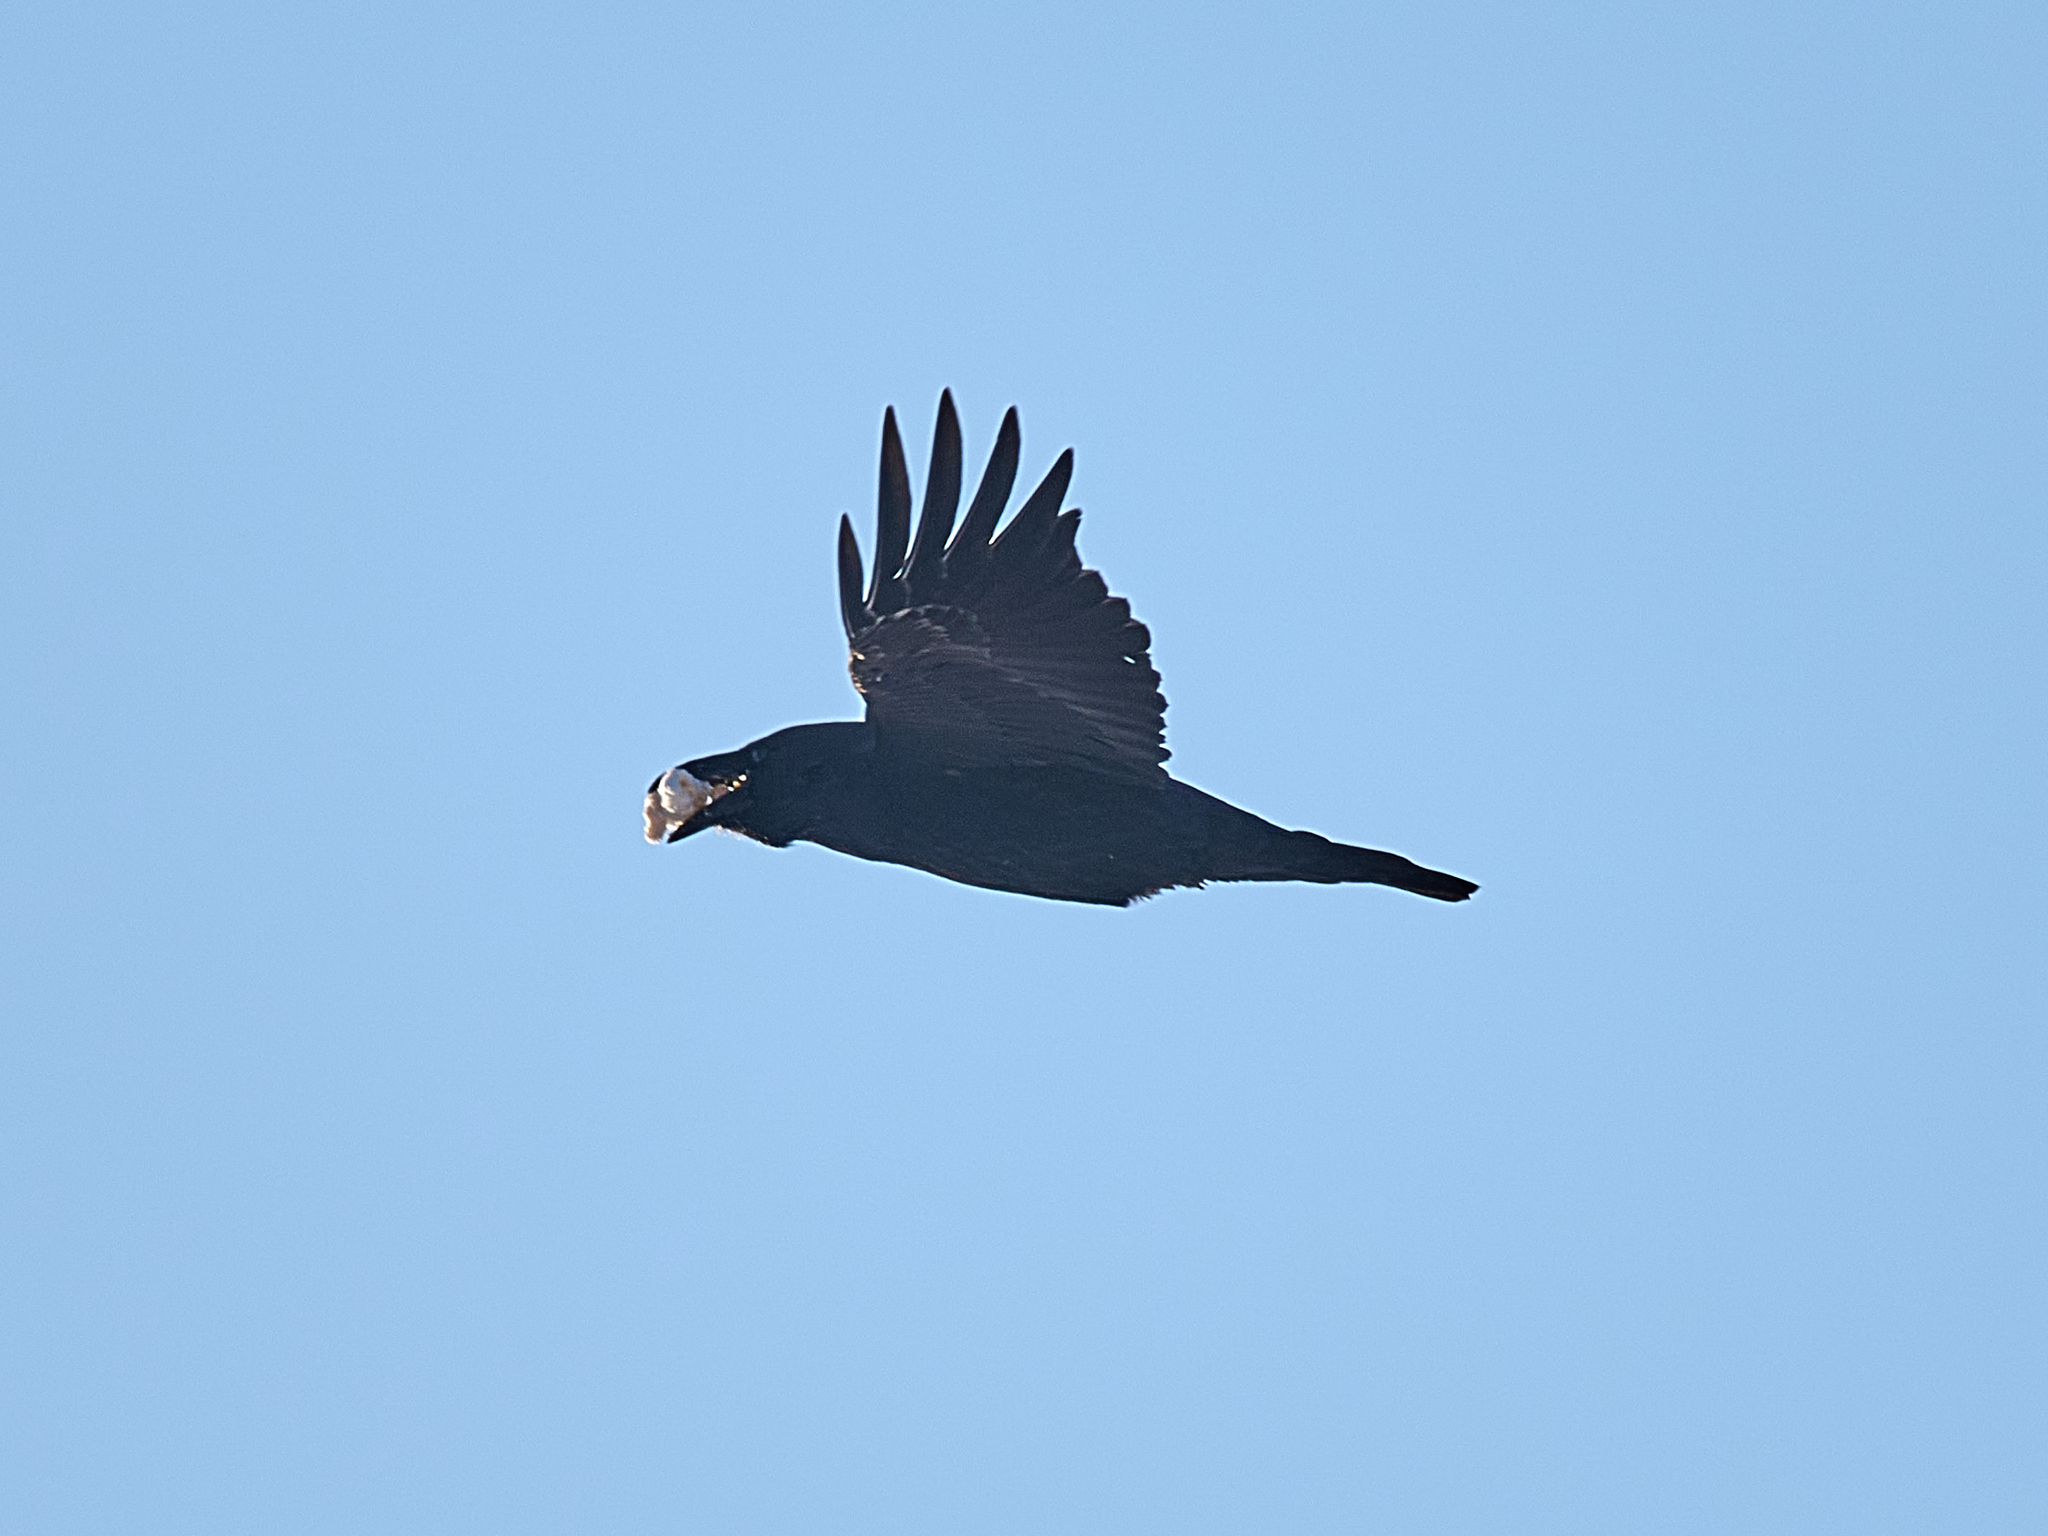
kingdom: Animalia
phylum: Chordata
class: Aves
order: Passeriformes
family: Corvidae
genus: Corvus
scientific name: Corvus corax
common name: Common raven
